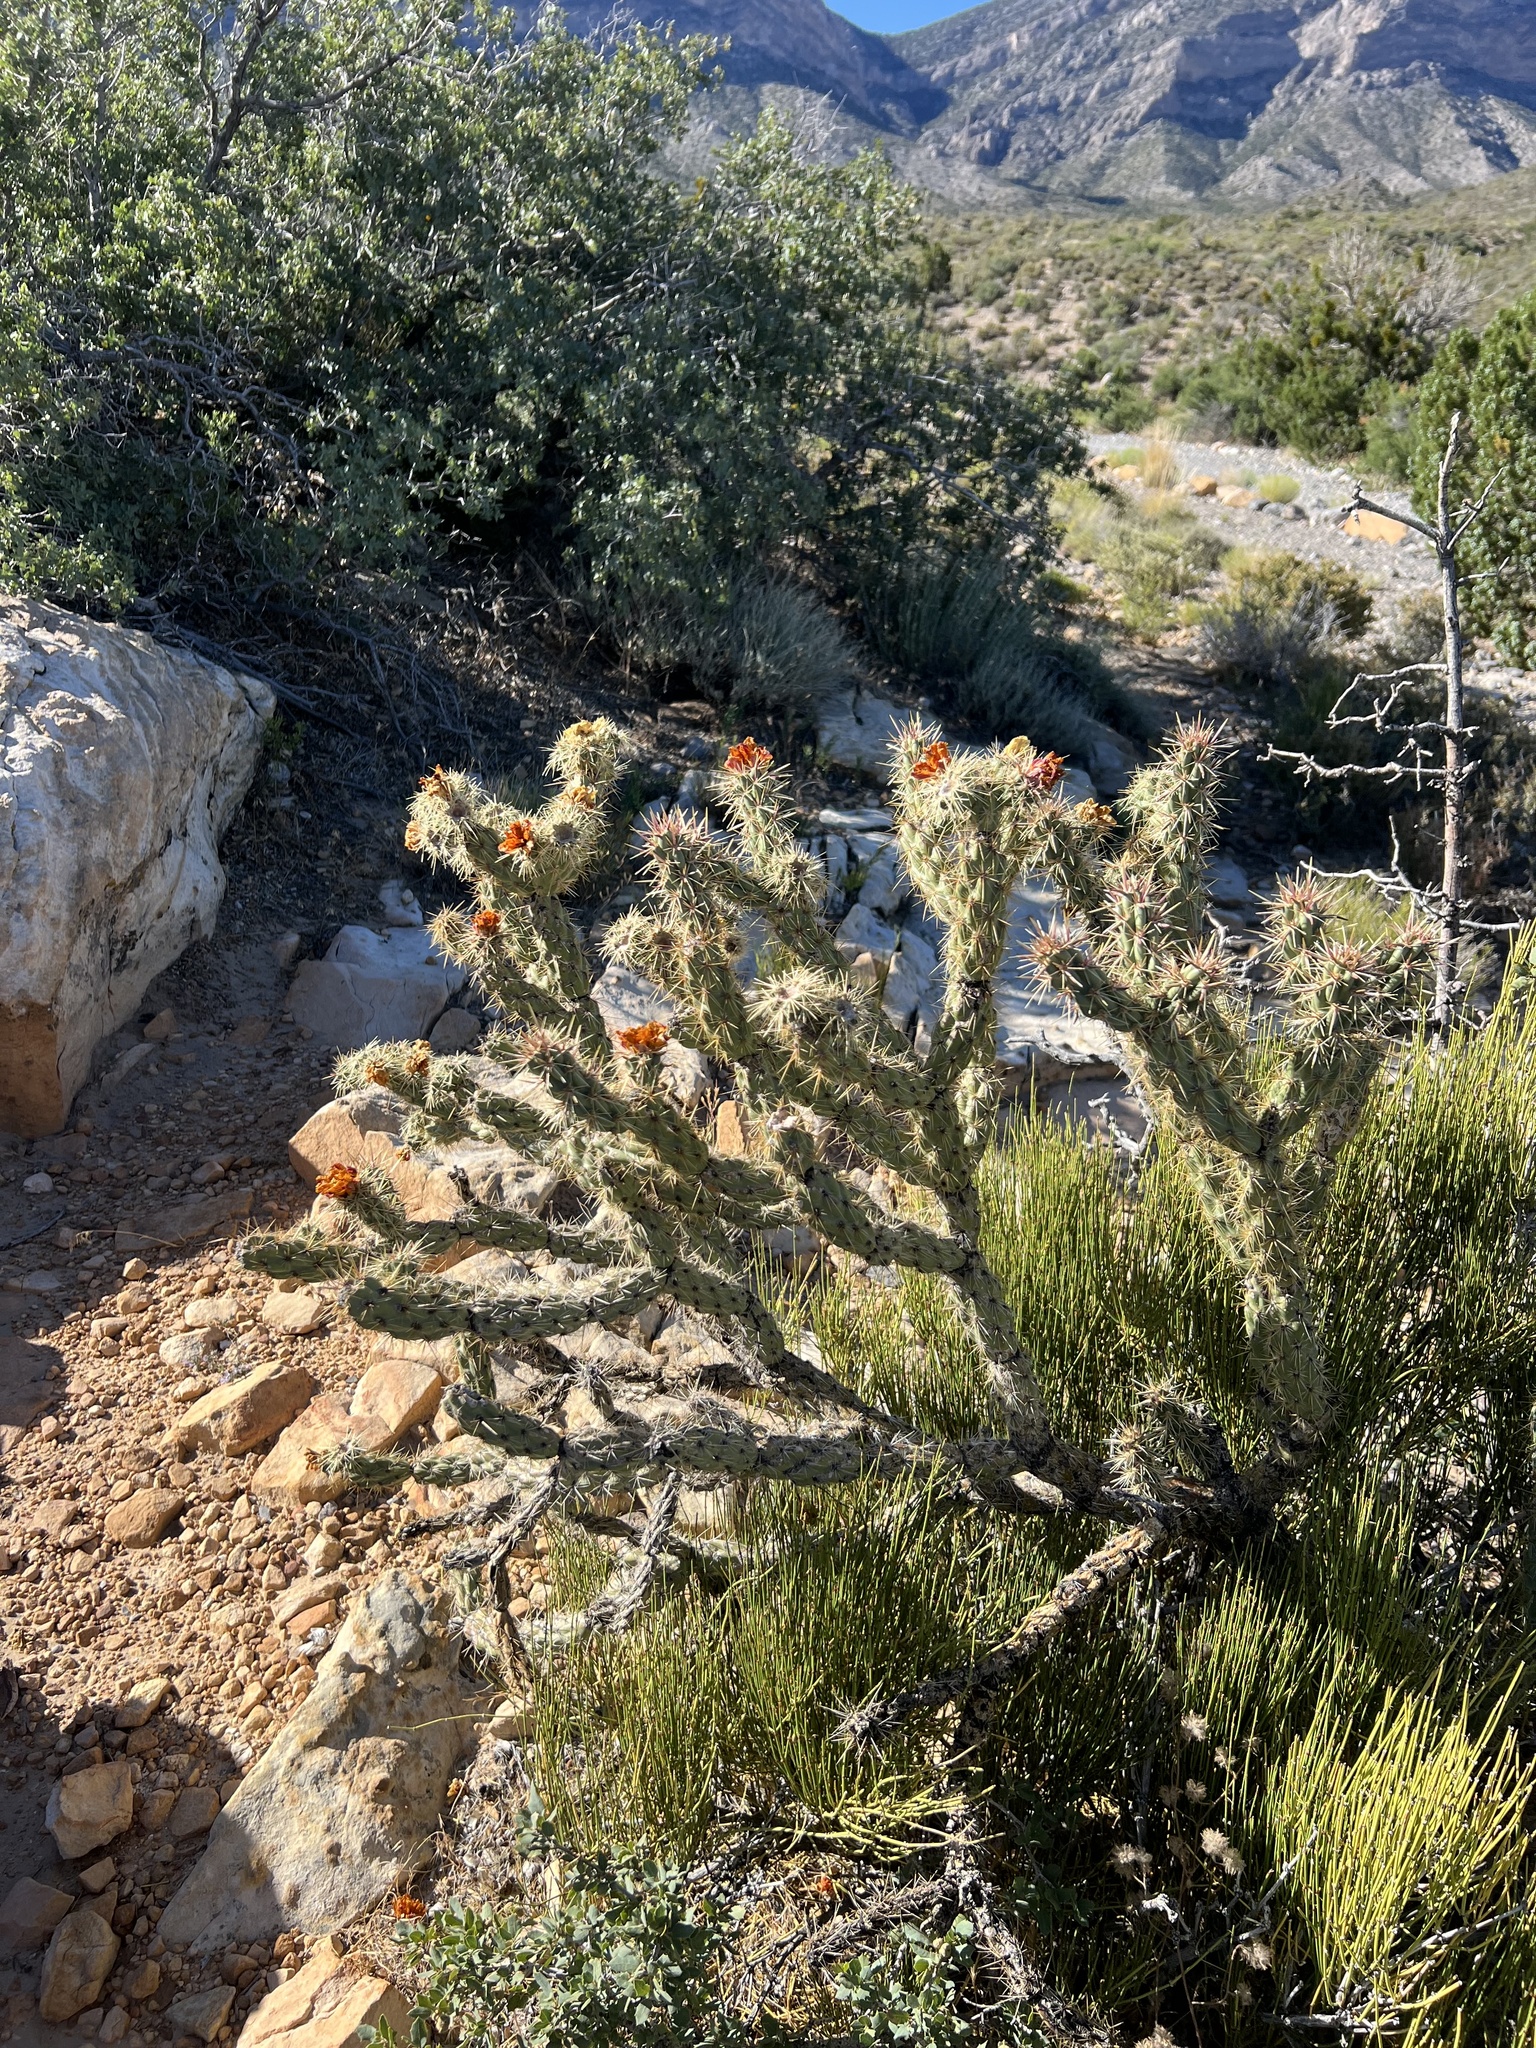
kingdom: Plantae
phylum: Tracheophyta
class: Magnoliopsida
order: Caryophyllales
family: Cactaceae
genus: Cylindropuntia
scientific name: Cylindropuntia acanthocarpa
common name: Buckhorn cholla
